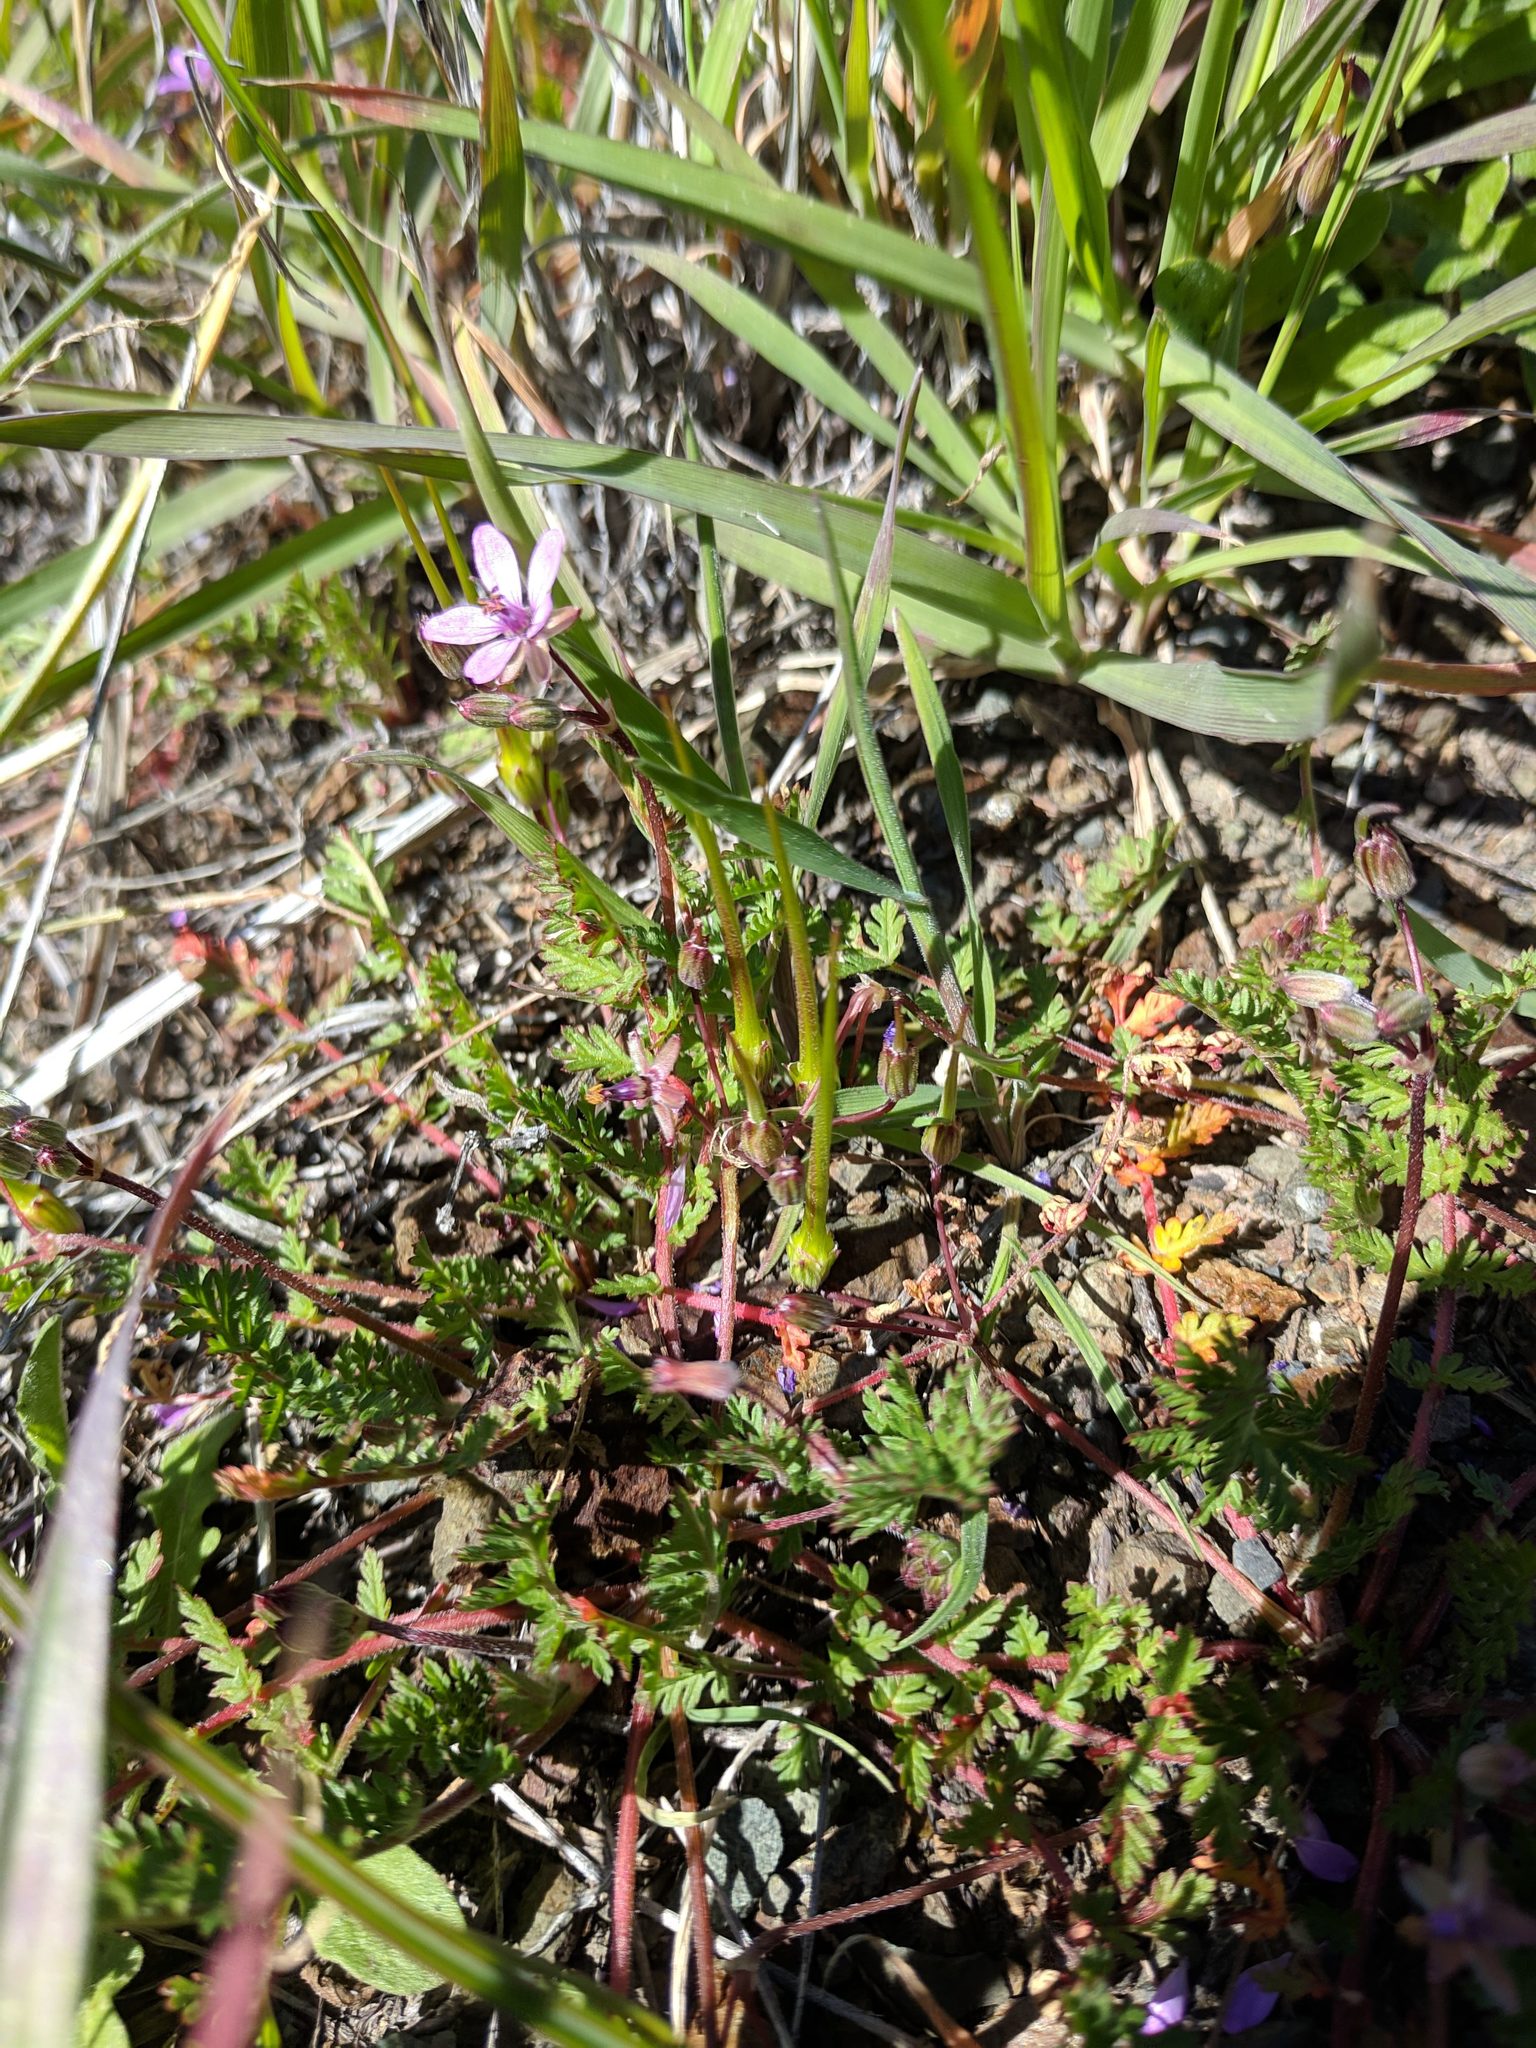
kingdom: Plantae
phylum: Tracheophyta
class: Magnoliopsida
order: Geraniales
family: Geraniaceae
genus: Erodium
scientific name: Erodium cicutarium
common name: Common stork's-bill
